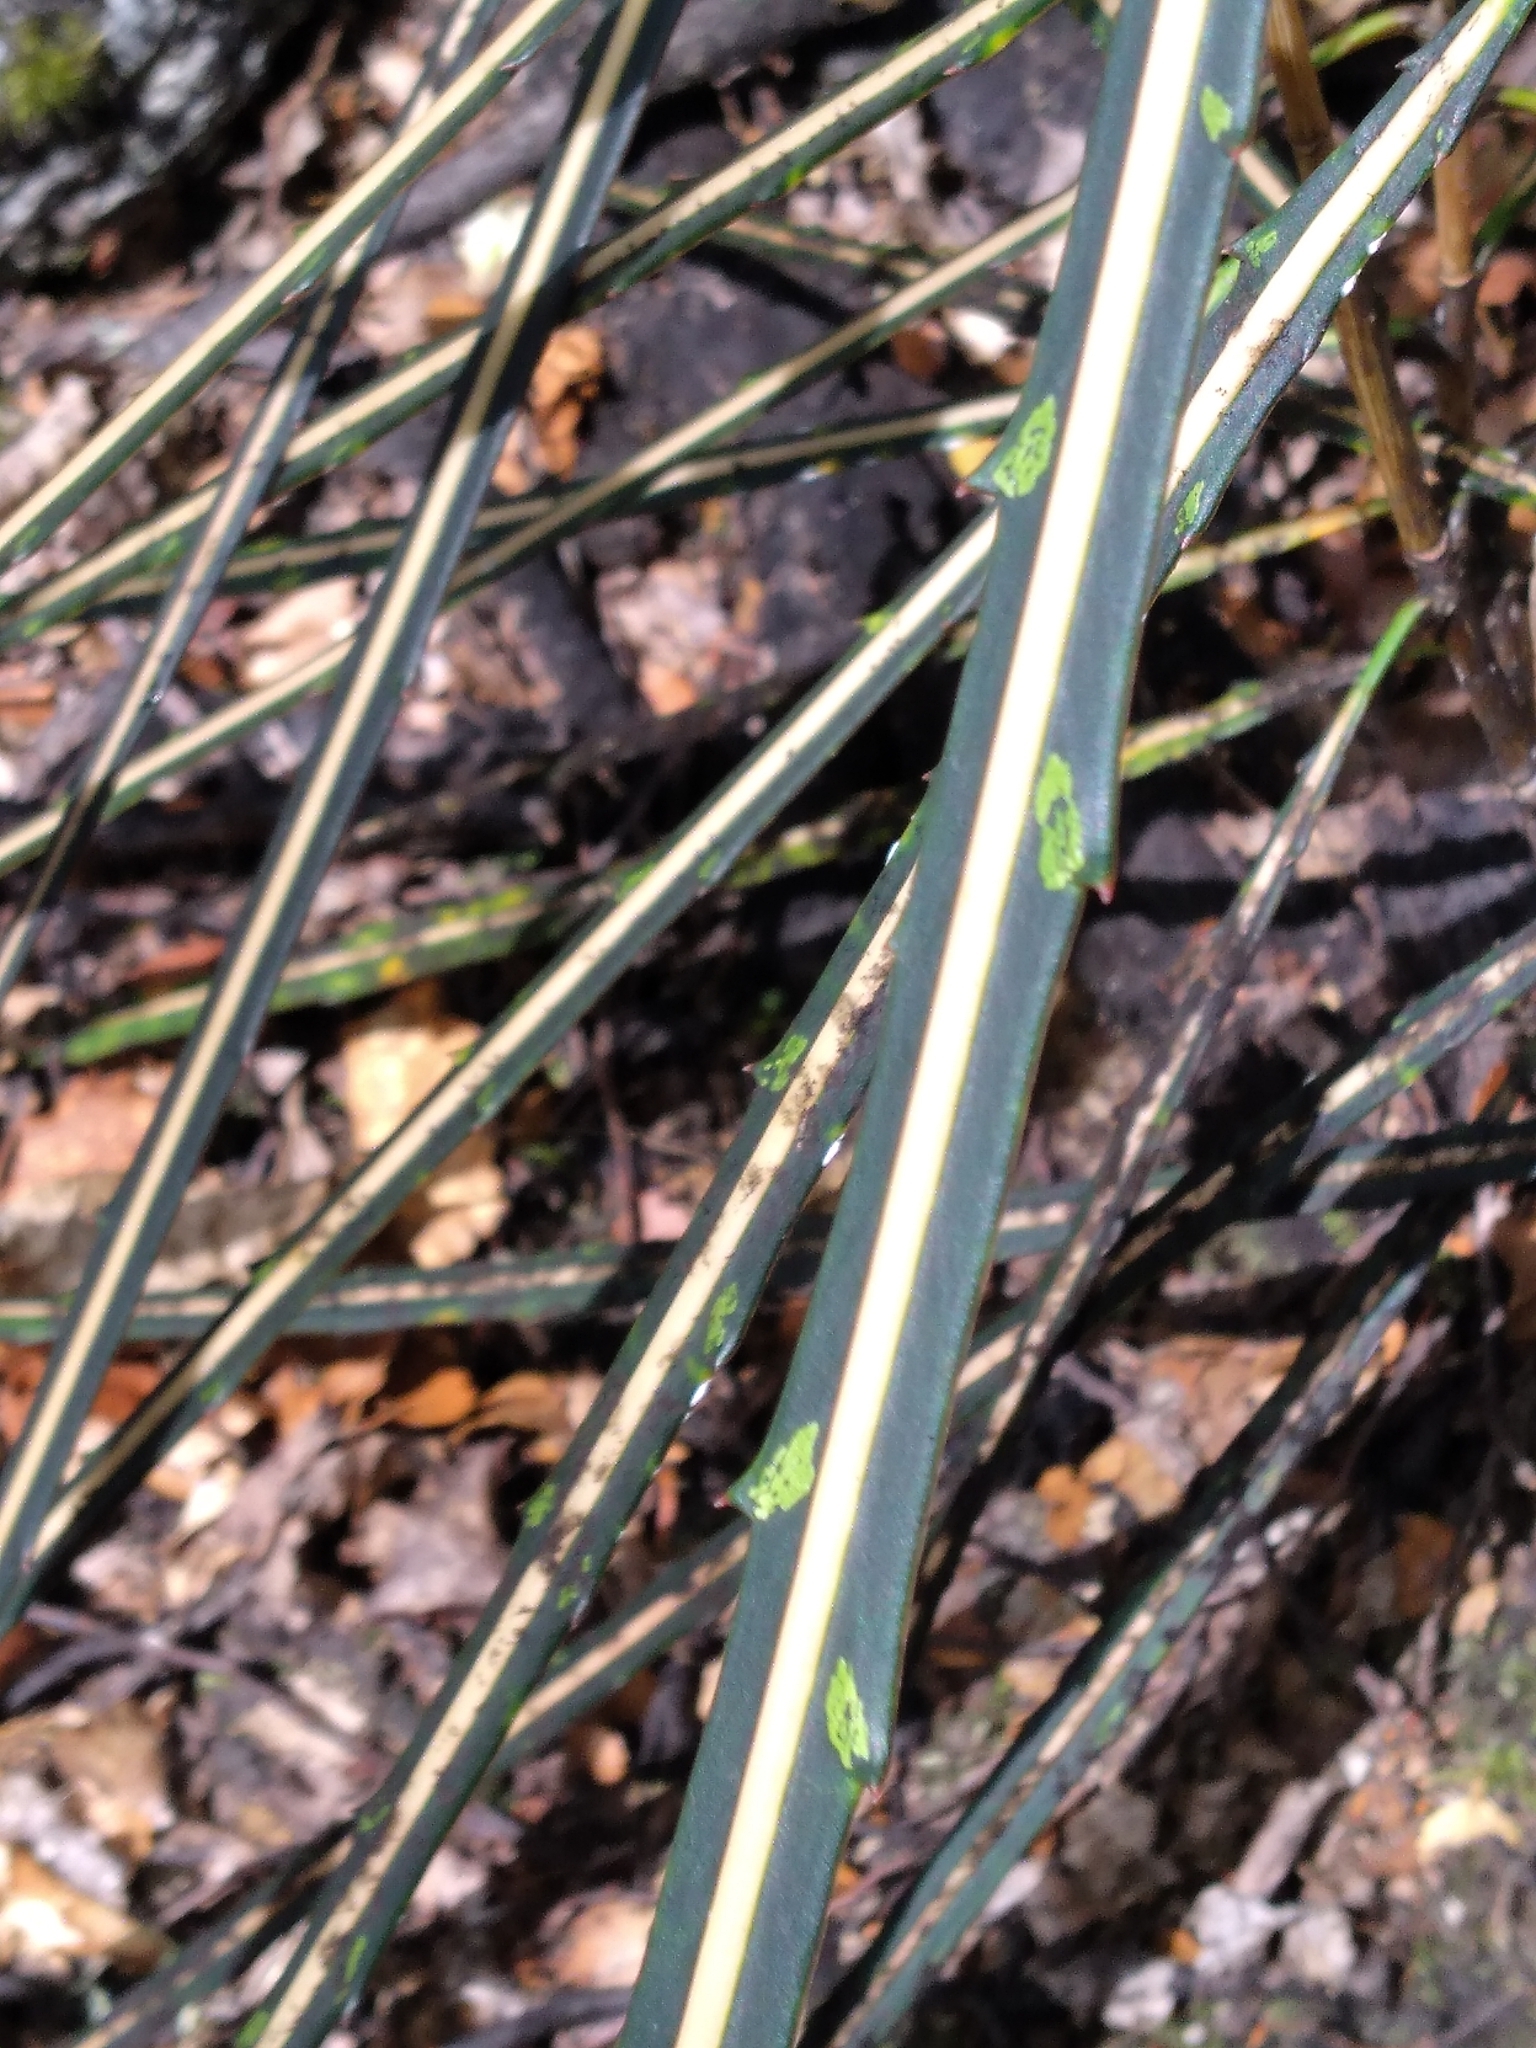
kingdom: Plantae
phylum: Tracheophyta
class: Magnoliopsida
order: Apiales
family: Araliaceae
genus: Pseudopanax
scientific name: Pseudopanax crassifolius
